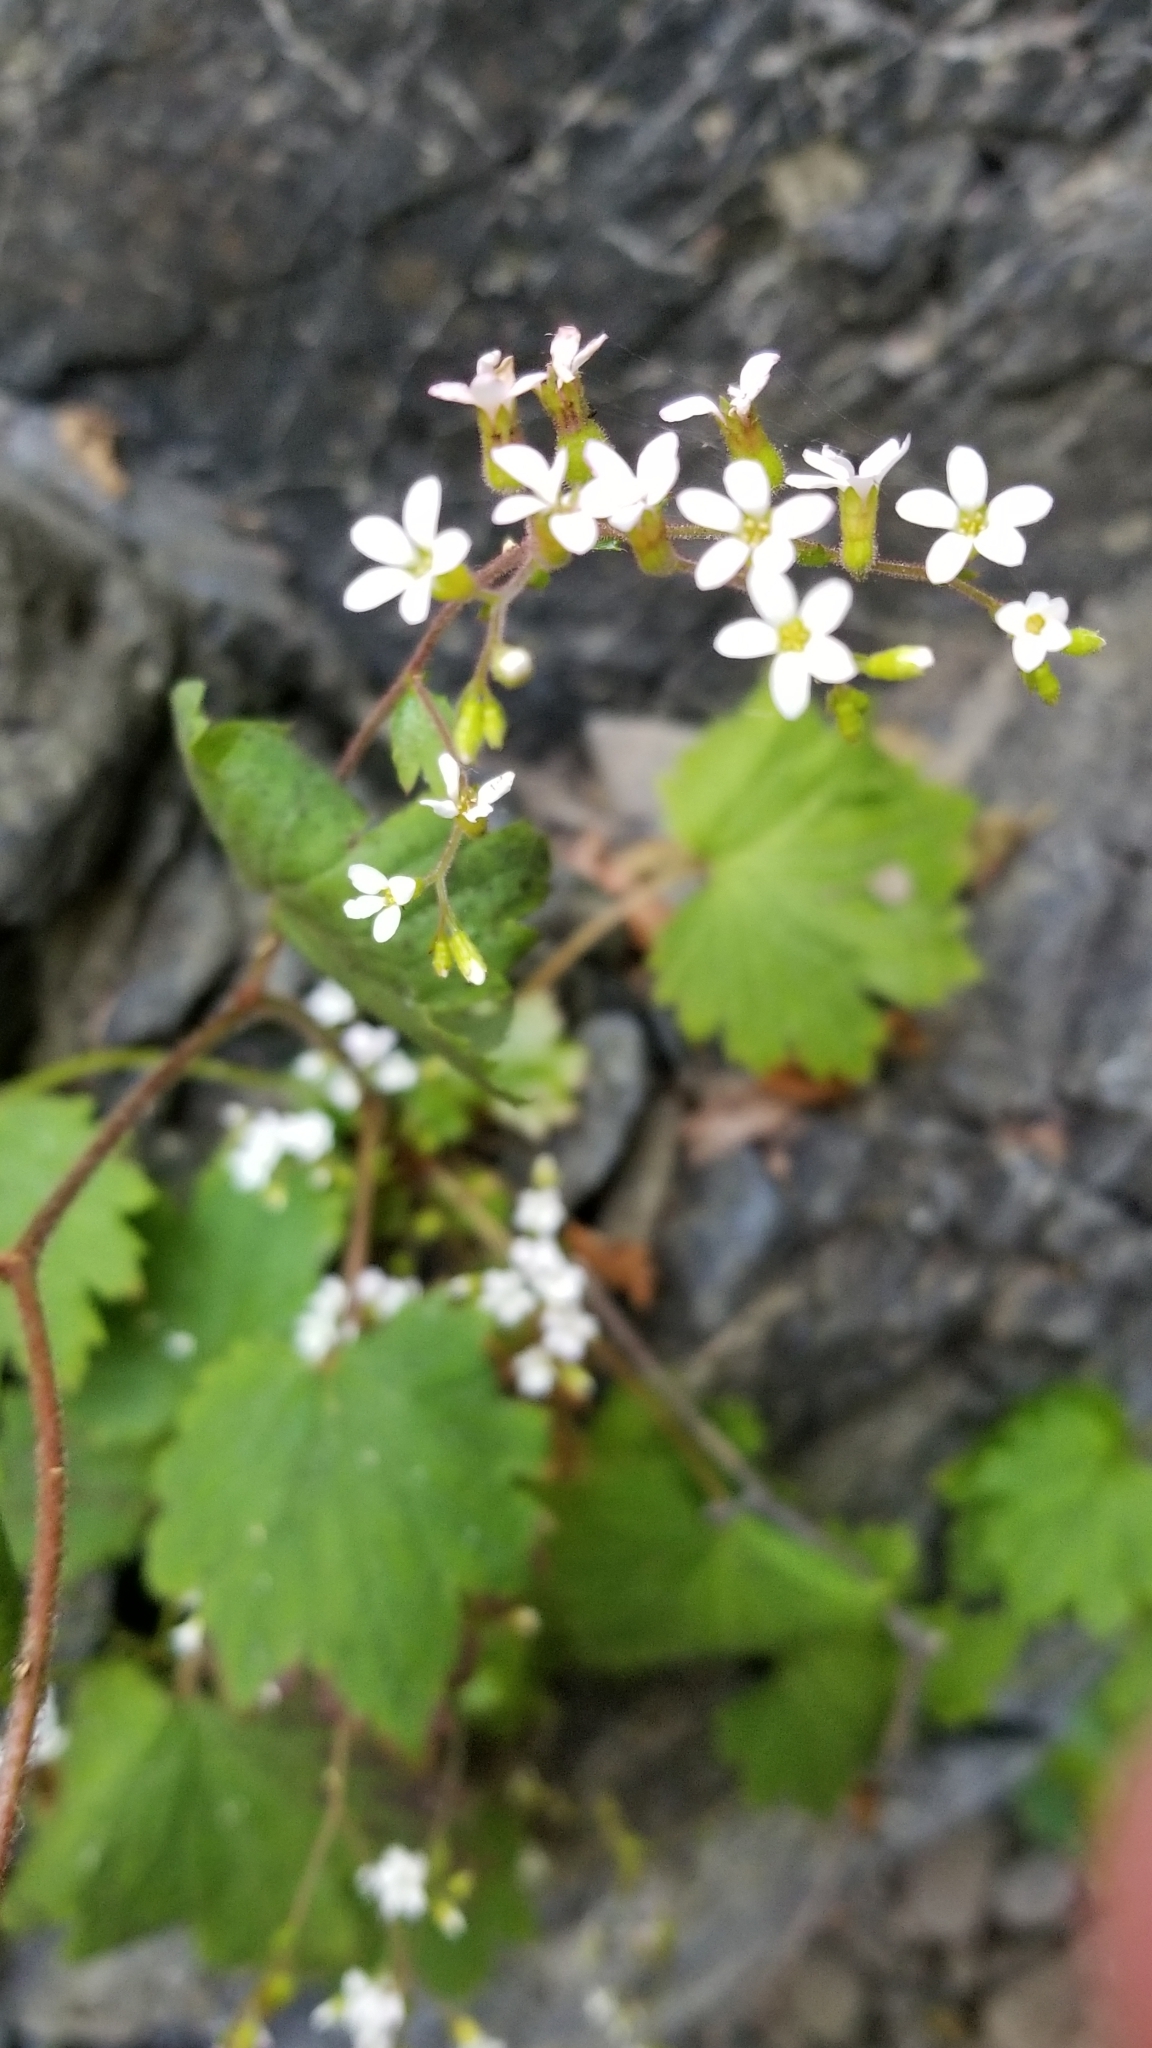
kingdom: Plantae
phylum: Tracheophyta
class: Magnoliopsida
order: Saxifragales
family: Saxifragaceae
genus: Boykinia
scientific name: Boykinia occidentalis
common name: Coast boykinia
